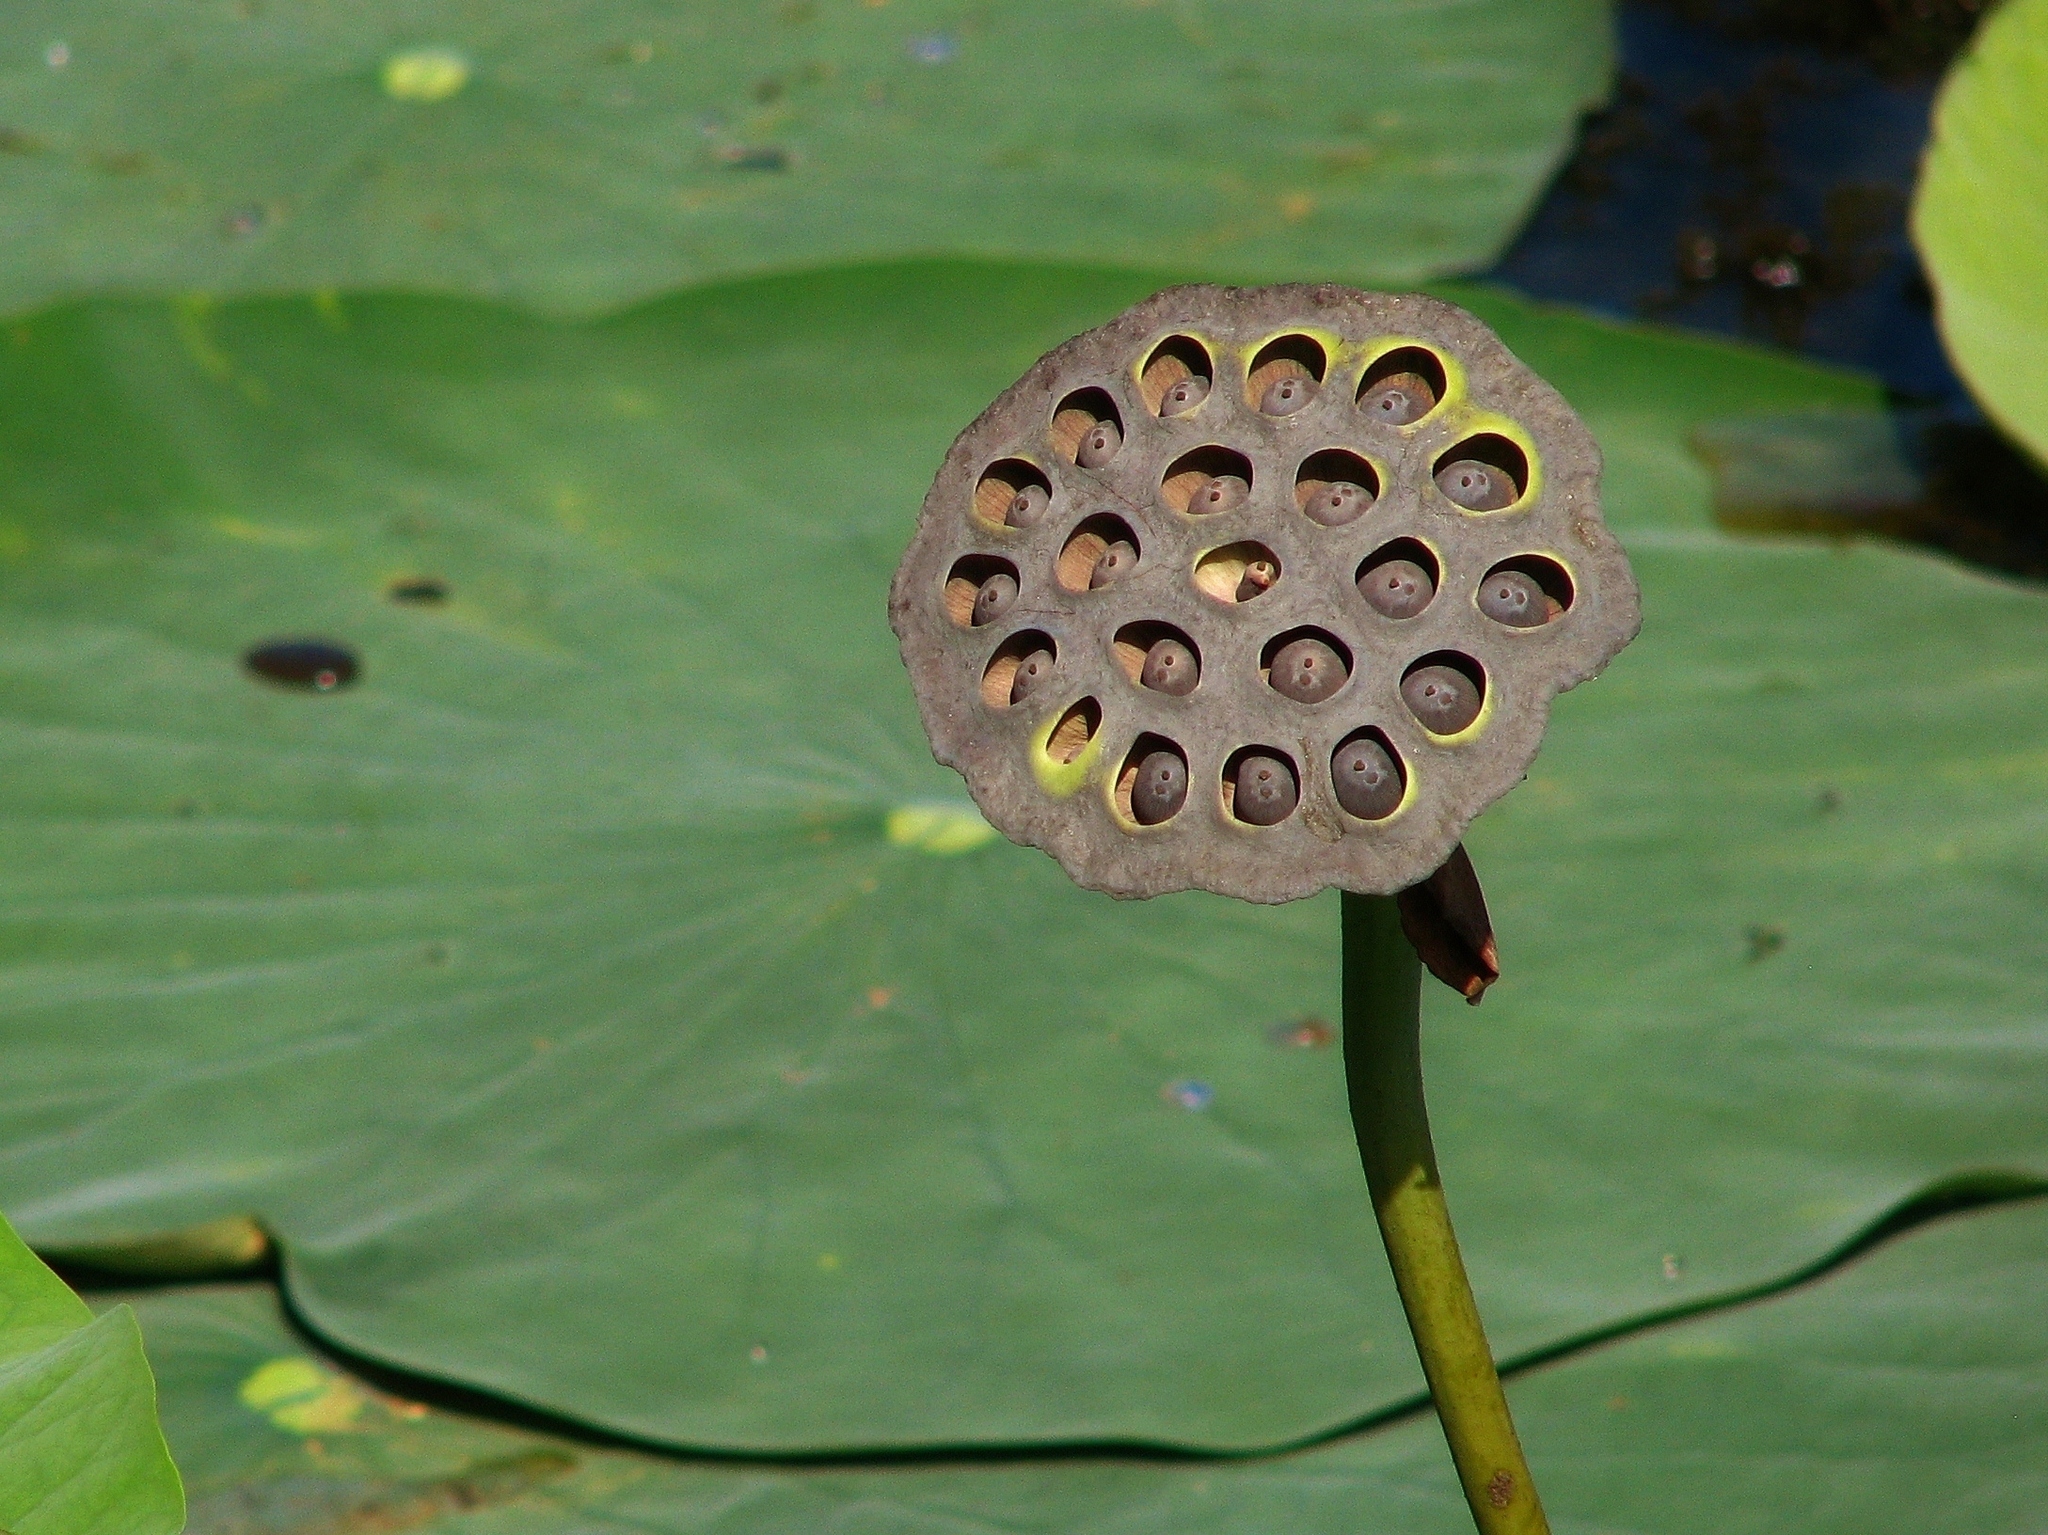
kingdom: Plantae
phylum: Tracheophyta
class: Magnoliopsida
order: Proteales
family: Nelumbonaceae
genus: Nelumbo
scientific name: Nelumbo lutea
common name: American lotus
